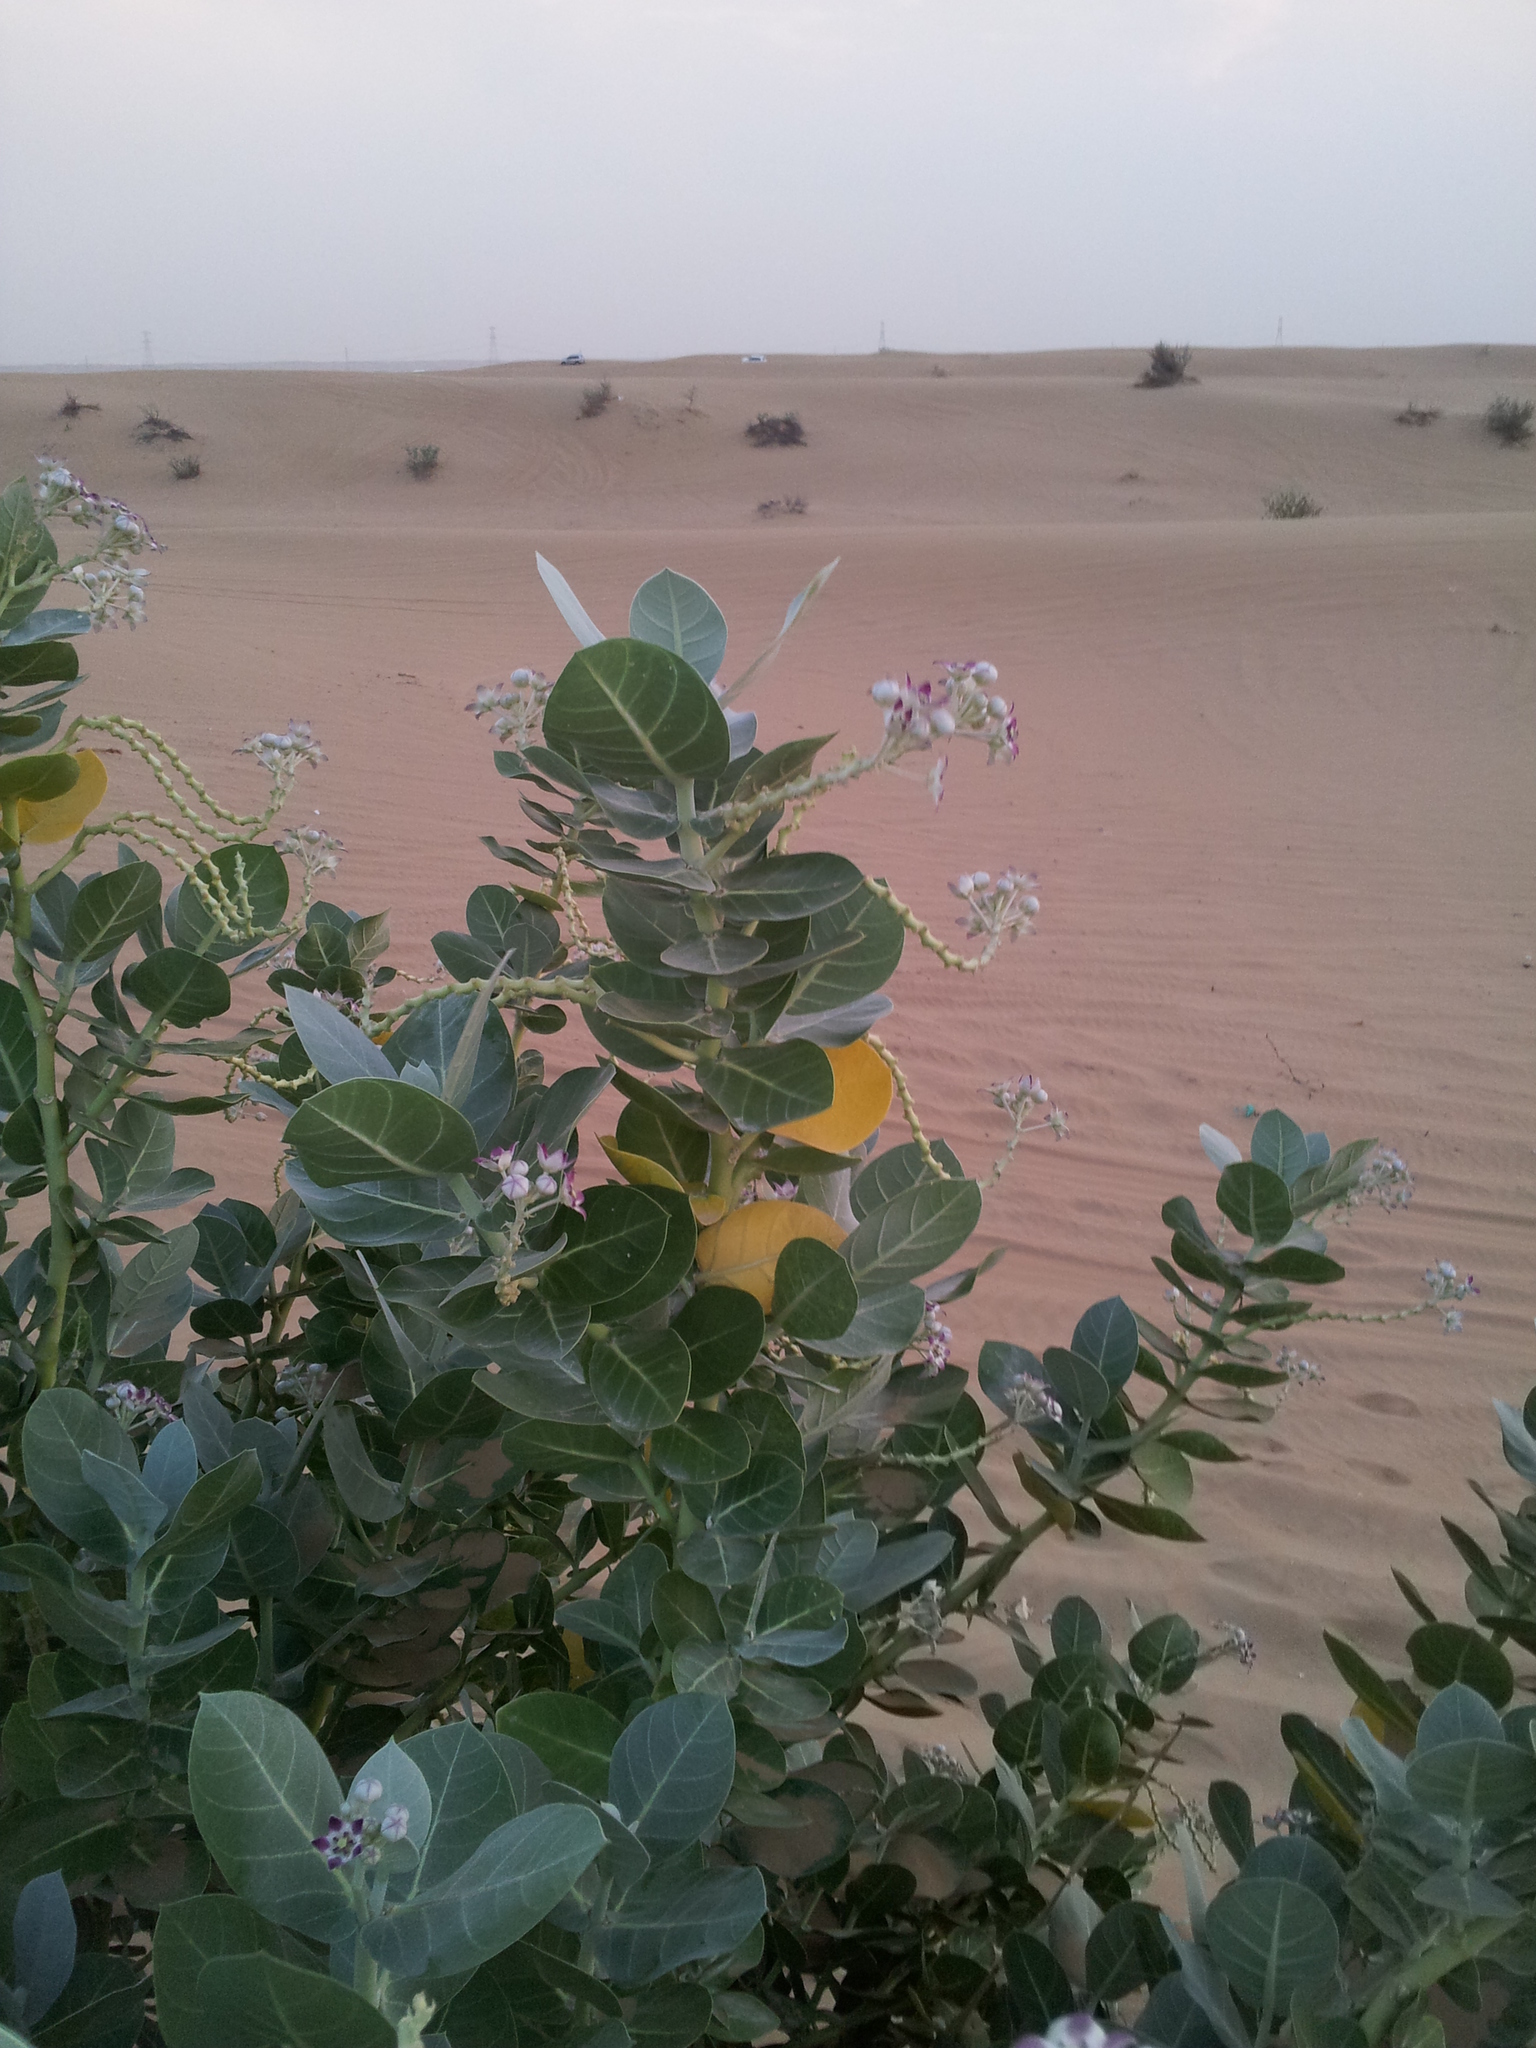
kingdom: Plantae
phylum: Tracheophyta
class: Magnoliopsida
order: Gentianales
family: Apocynaceae
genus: Calotropis
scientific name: Calotropis procera
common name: Roostertree
